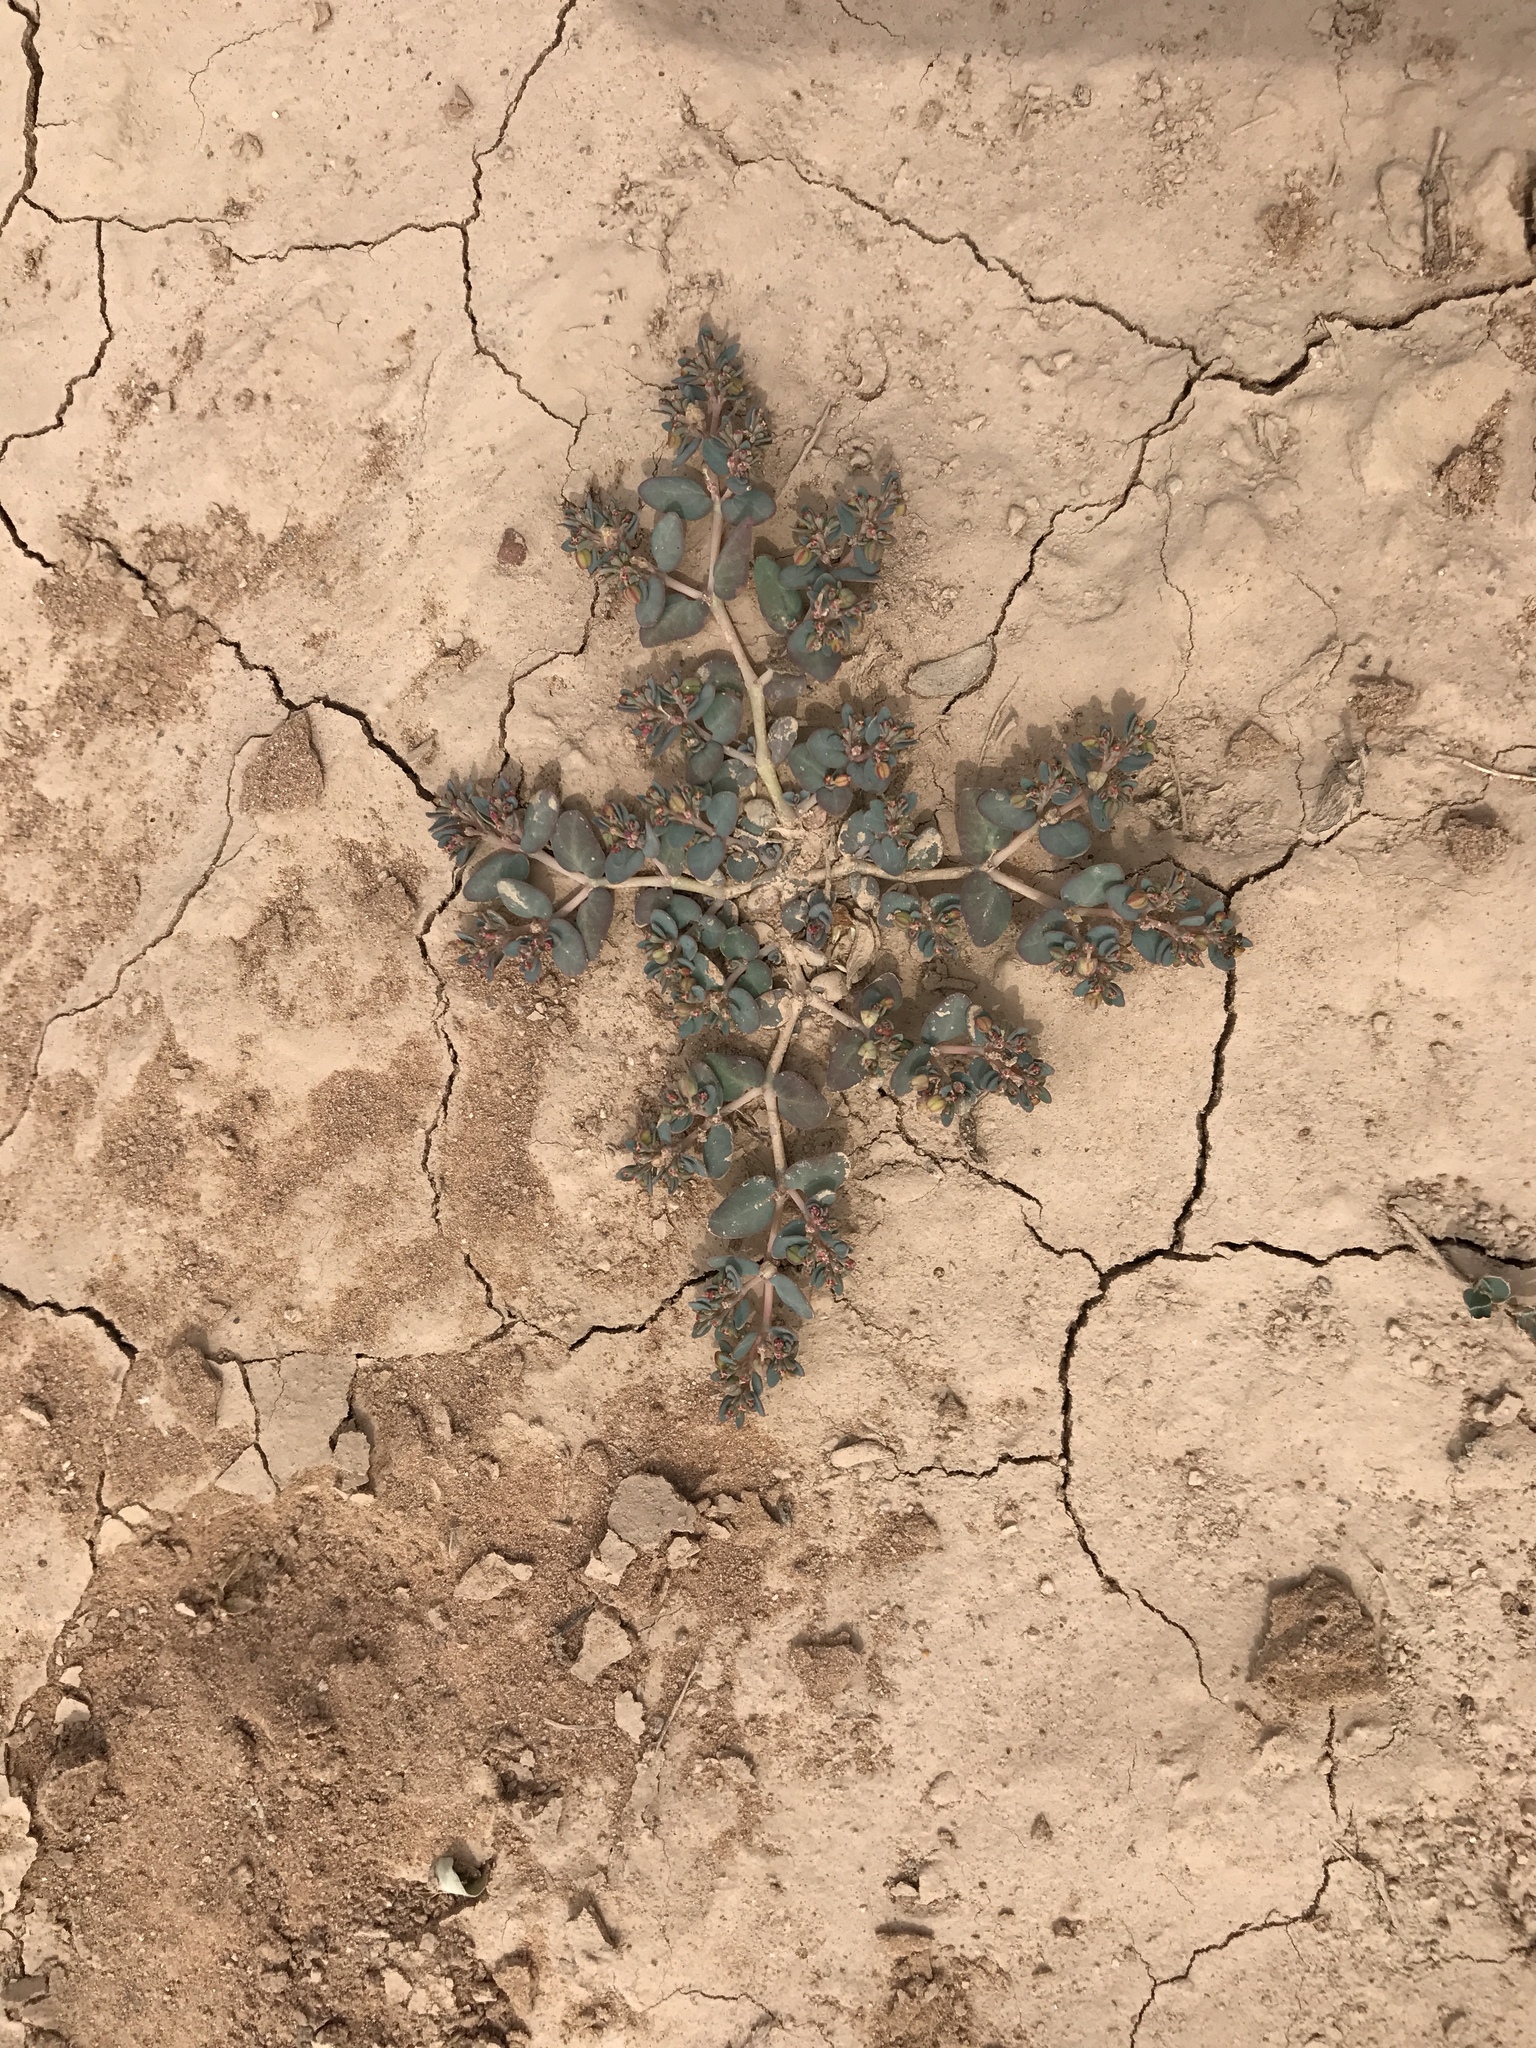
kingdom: Plantae
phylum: Tracheophyta
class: Magnoliopsida
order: Malpighiales
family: Euphorbiaceae
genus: Euphorbia
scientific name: Euphorbia micromera
